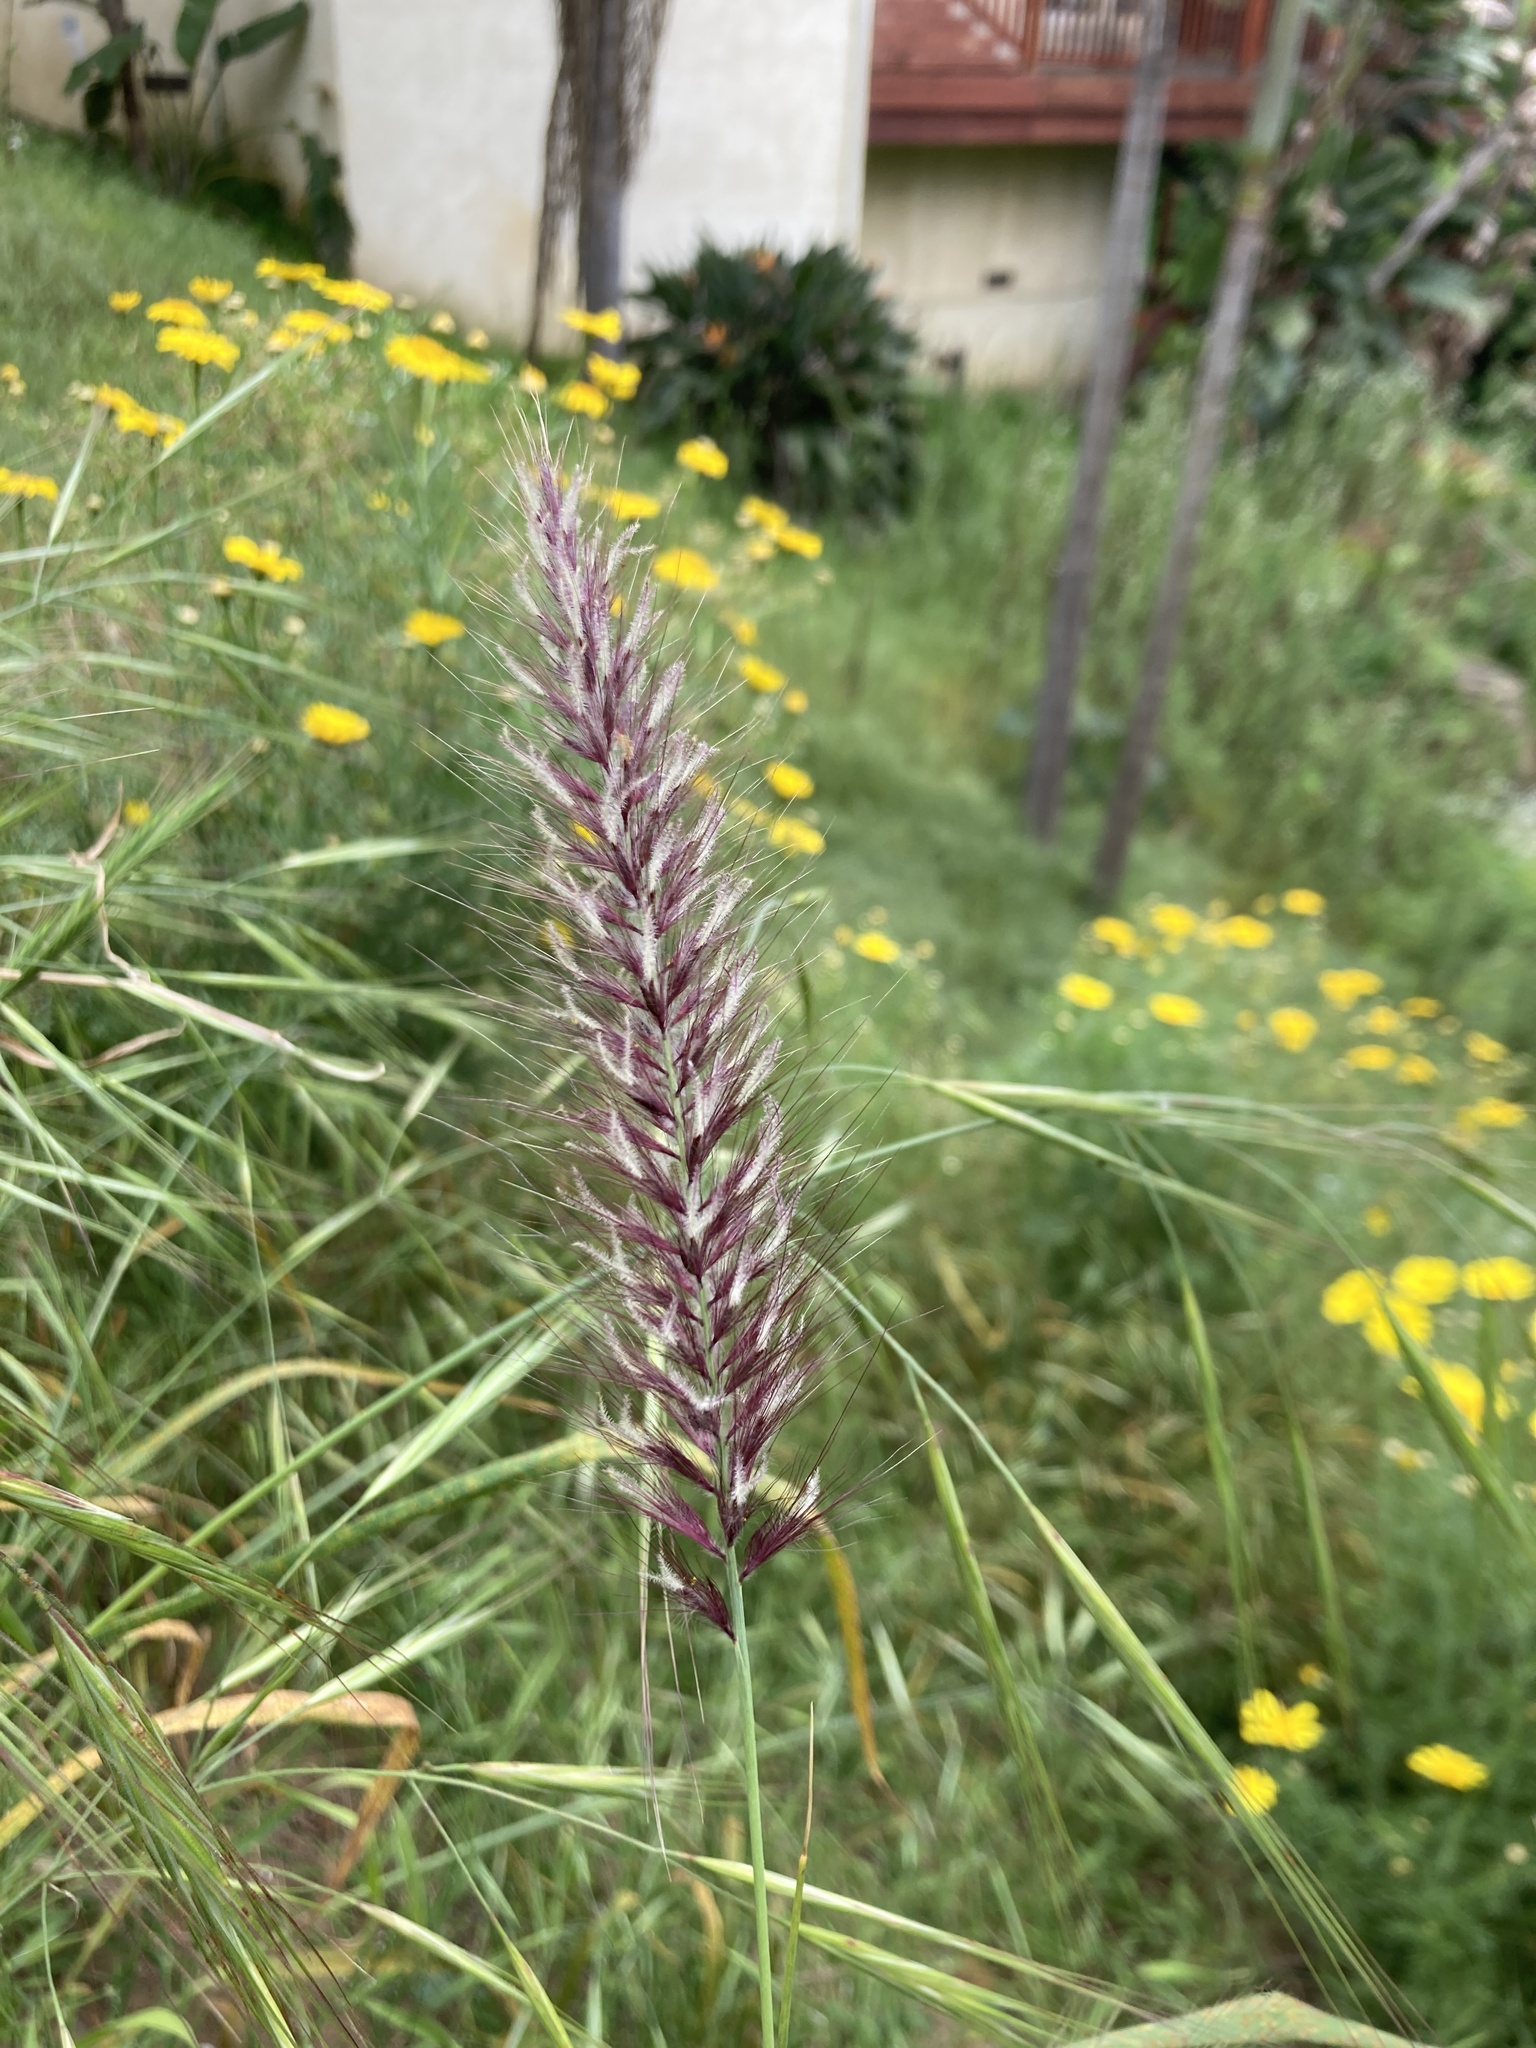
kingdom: Plantae
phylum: Tracheophyta
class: Liliopsida
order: Poales
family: Poaceae
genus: Cenchrus
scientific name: Cenchrus setaceus
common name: Crimson fountaingrass
